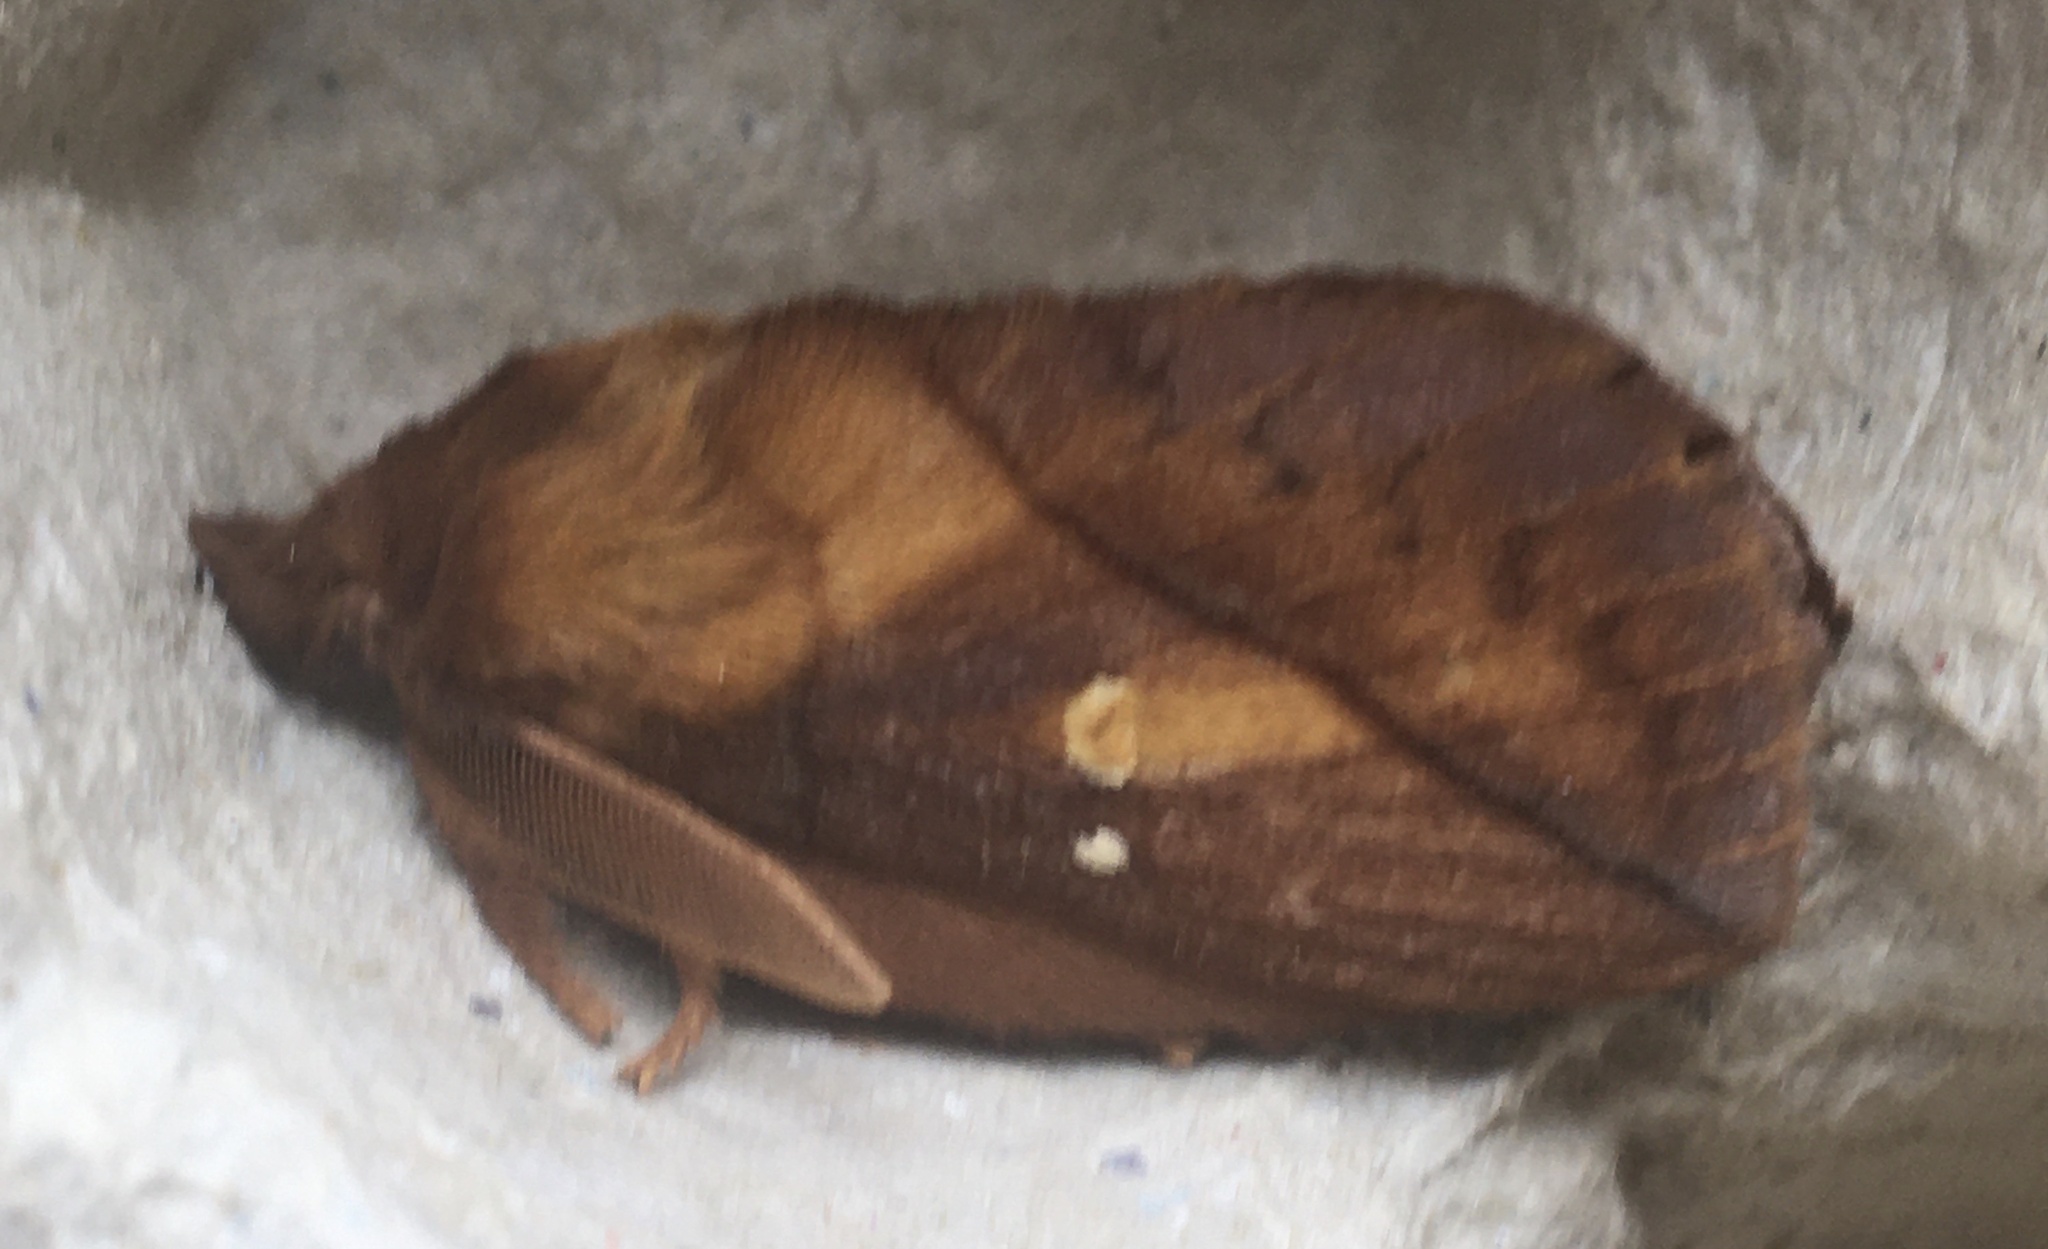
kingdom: Animalia
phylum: Arthropoda
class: Insecta
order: Lepidoptera
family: Lasiocampidae
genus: Euthrix
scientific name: Euthrix potatoria
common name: Drinker
